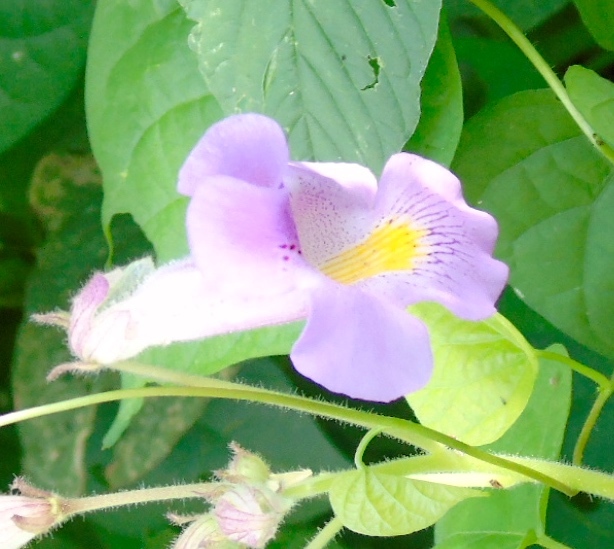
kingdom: Plantae
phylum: Tracheophyta
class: Magnoliopsida
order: Lamiales
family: Martyniaceae
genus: Proboscidea
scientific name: Proboscidea
